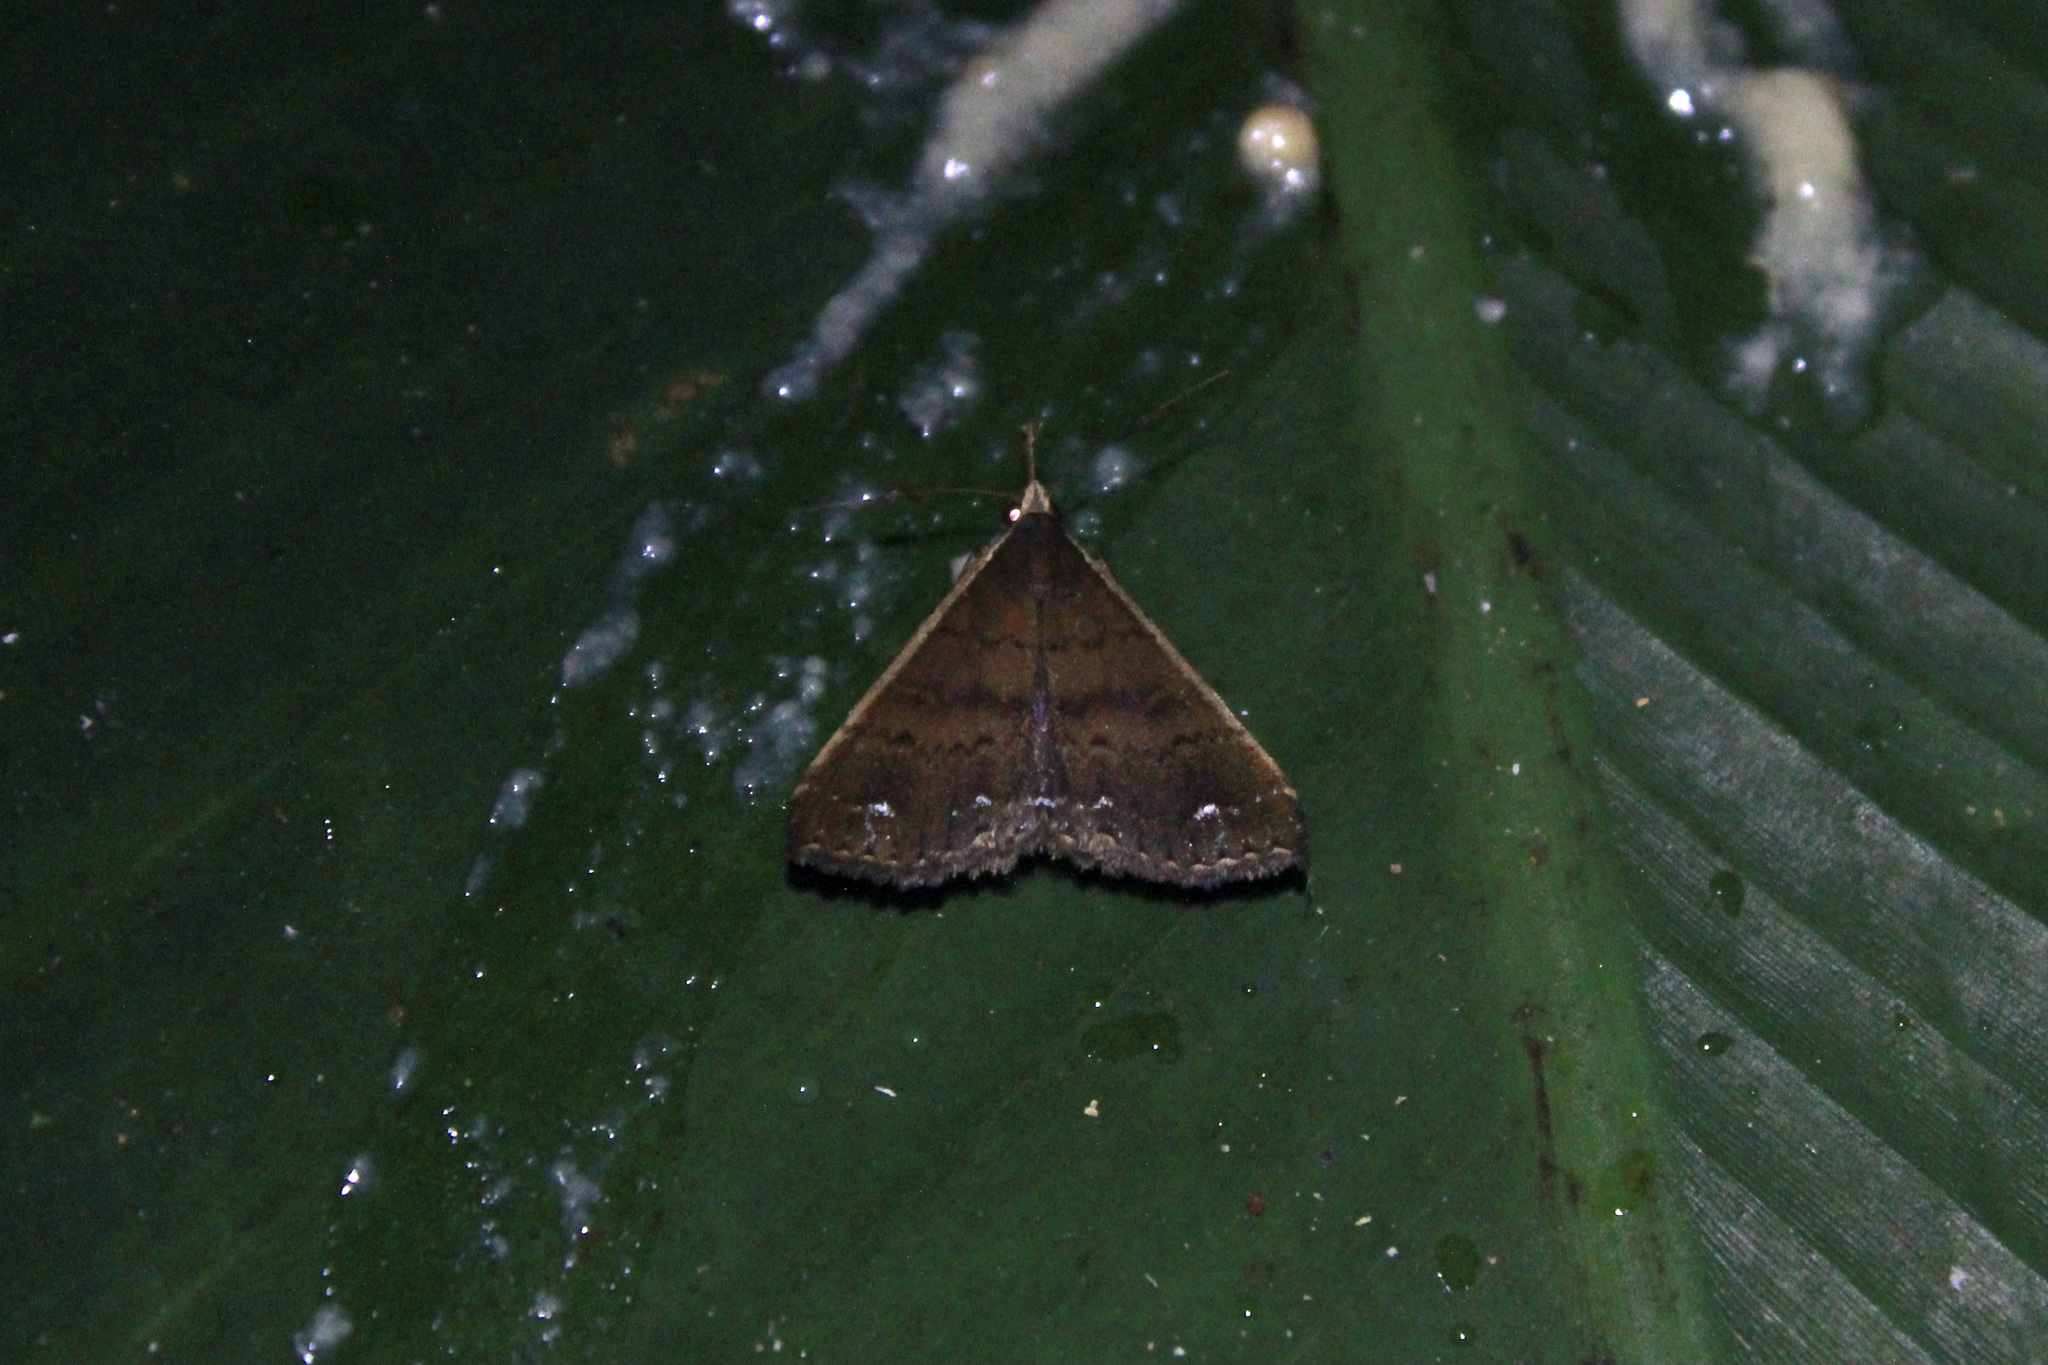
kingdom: Animalia
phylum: Arthropoda
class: Insecta
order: Lepidoptera
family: Erebidae
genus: Micramma
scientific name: Micramma croceicosta
